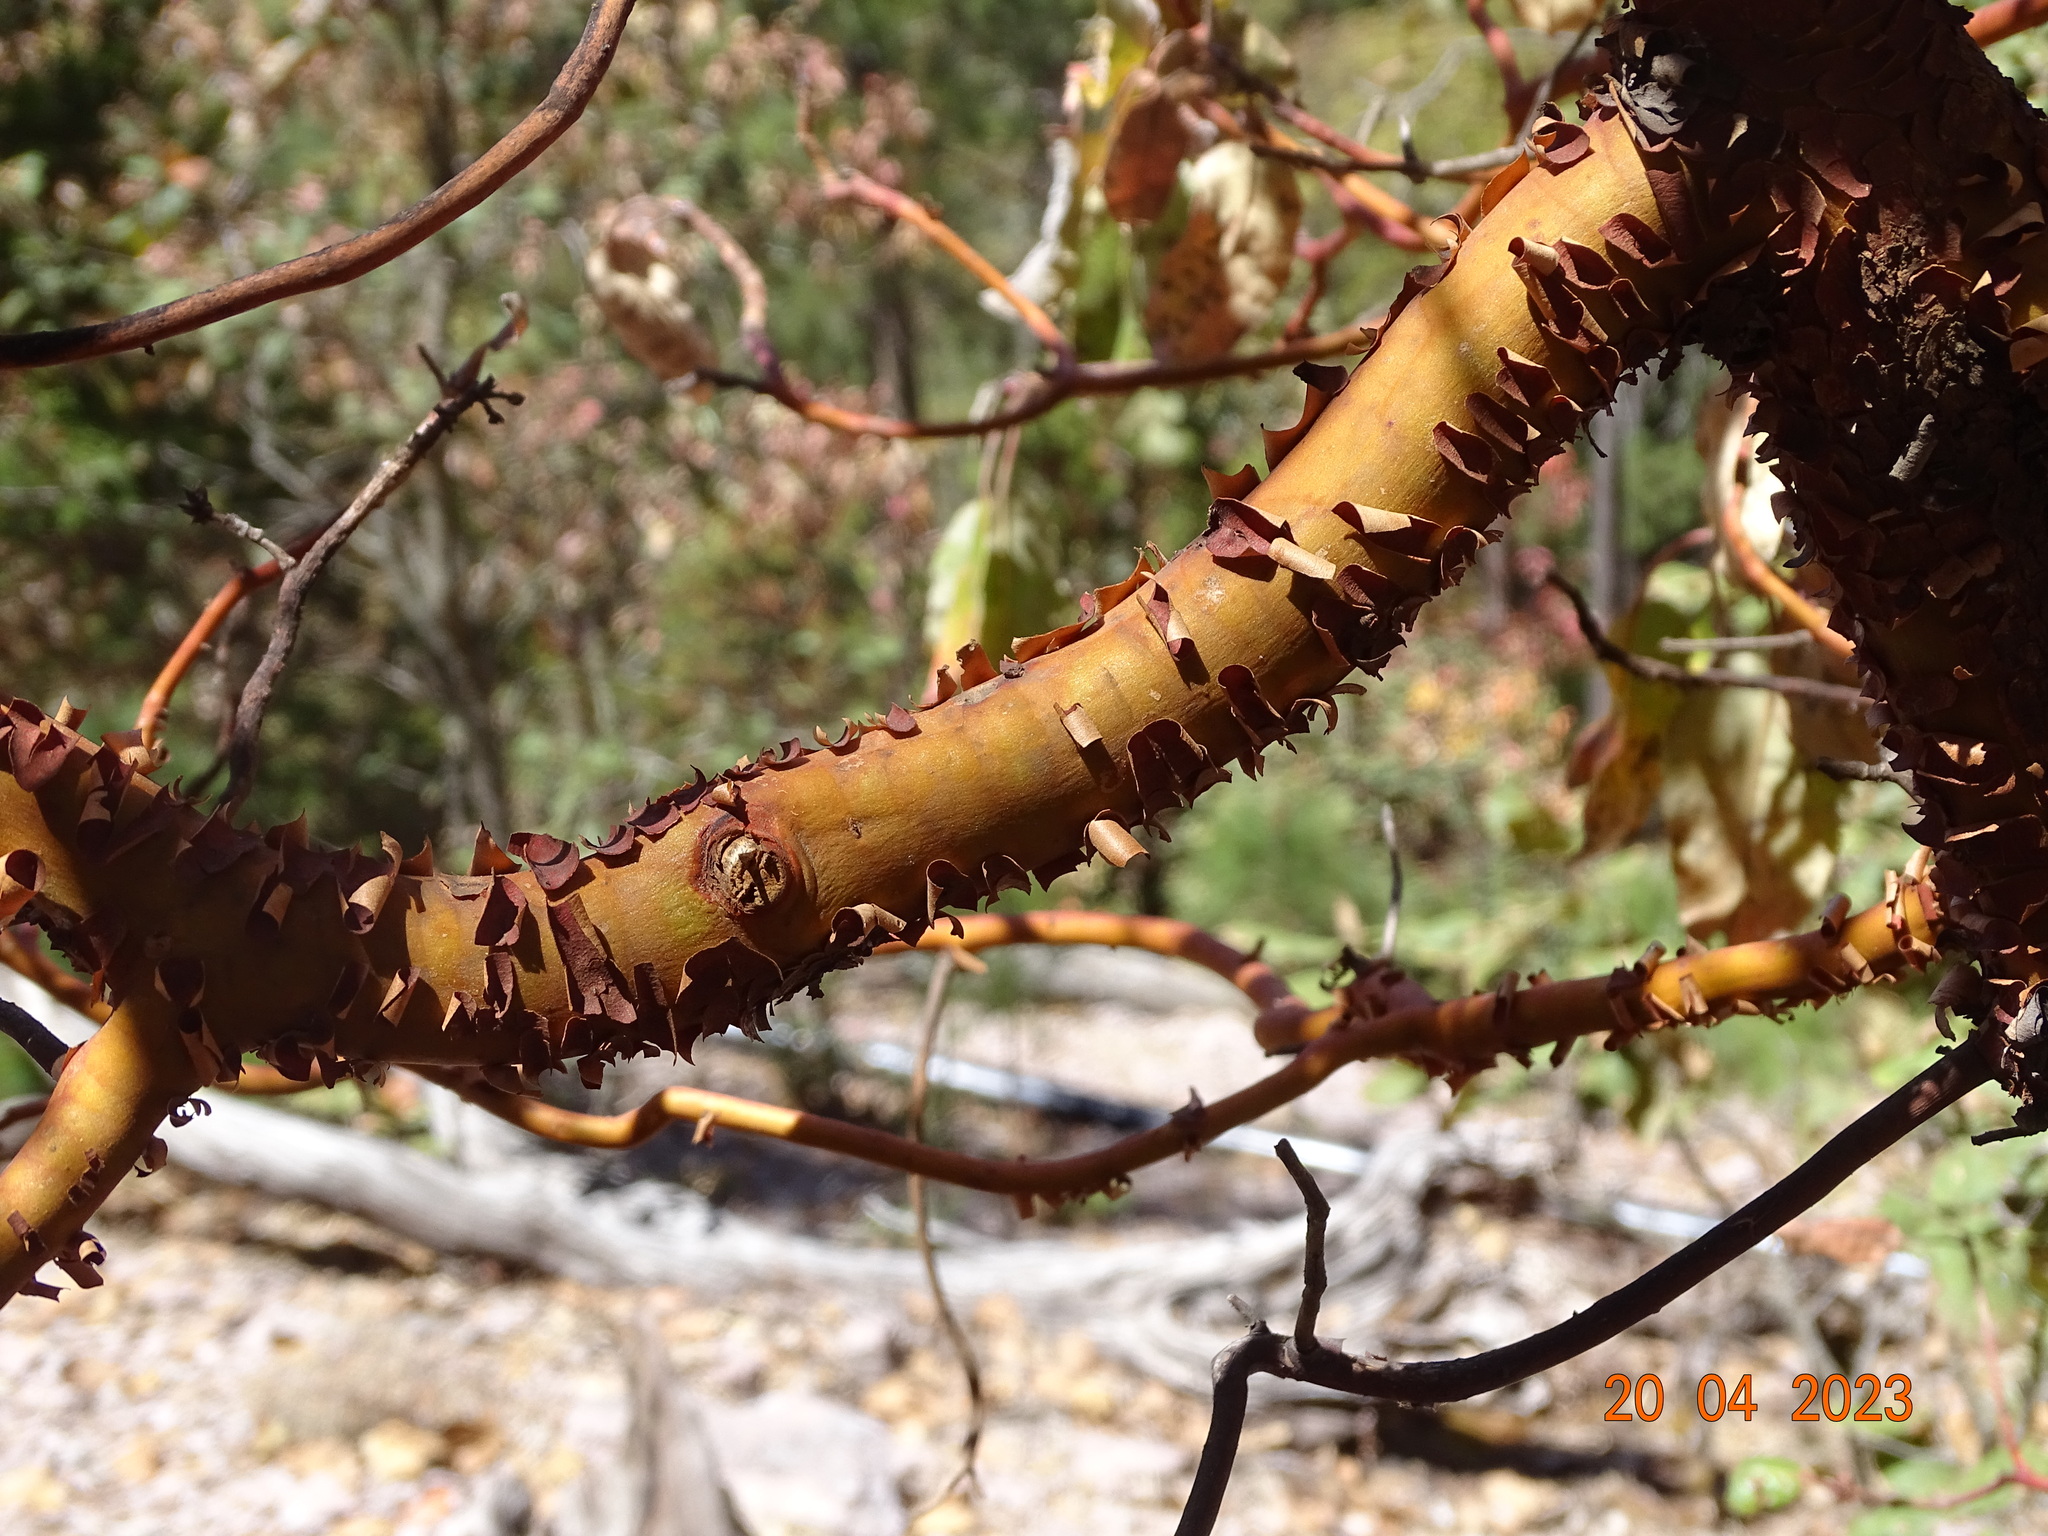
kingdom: Plantae
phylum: Tracheophyta
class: Magnoliopsida
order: Ericales
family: Ericaceae
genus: Arbutus
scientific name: Arbutus bicolor
